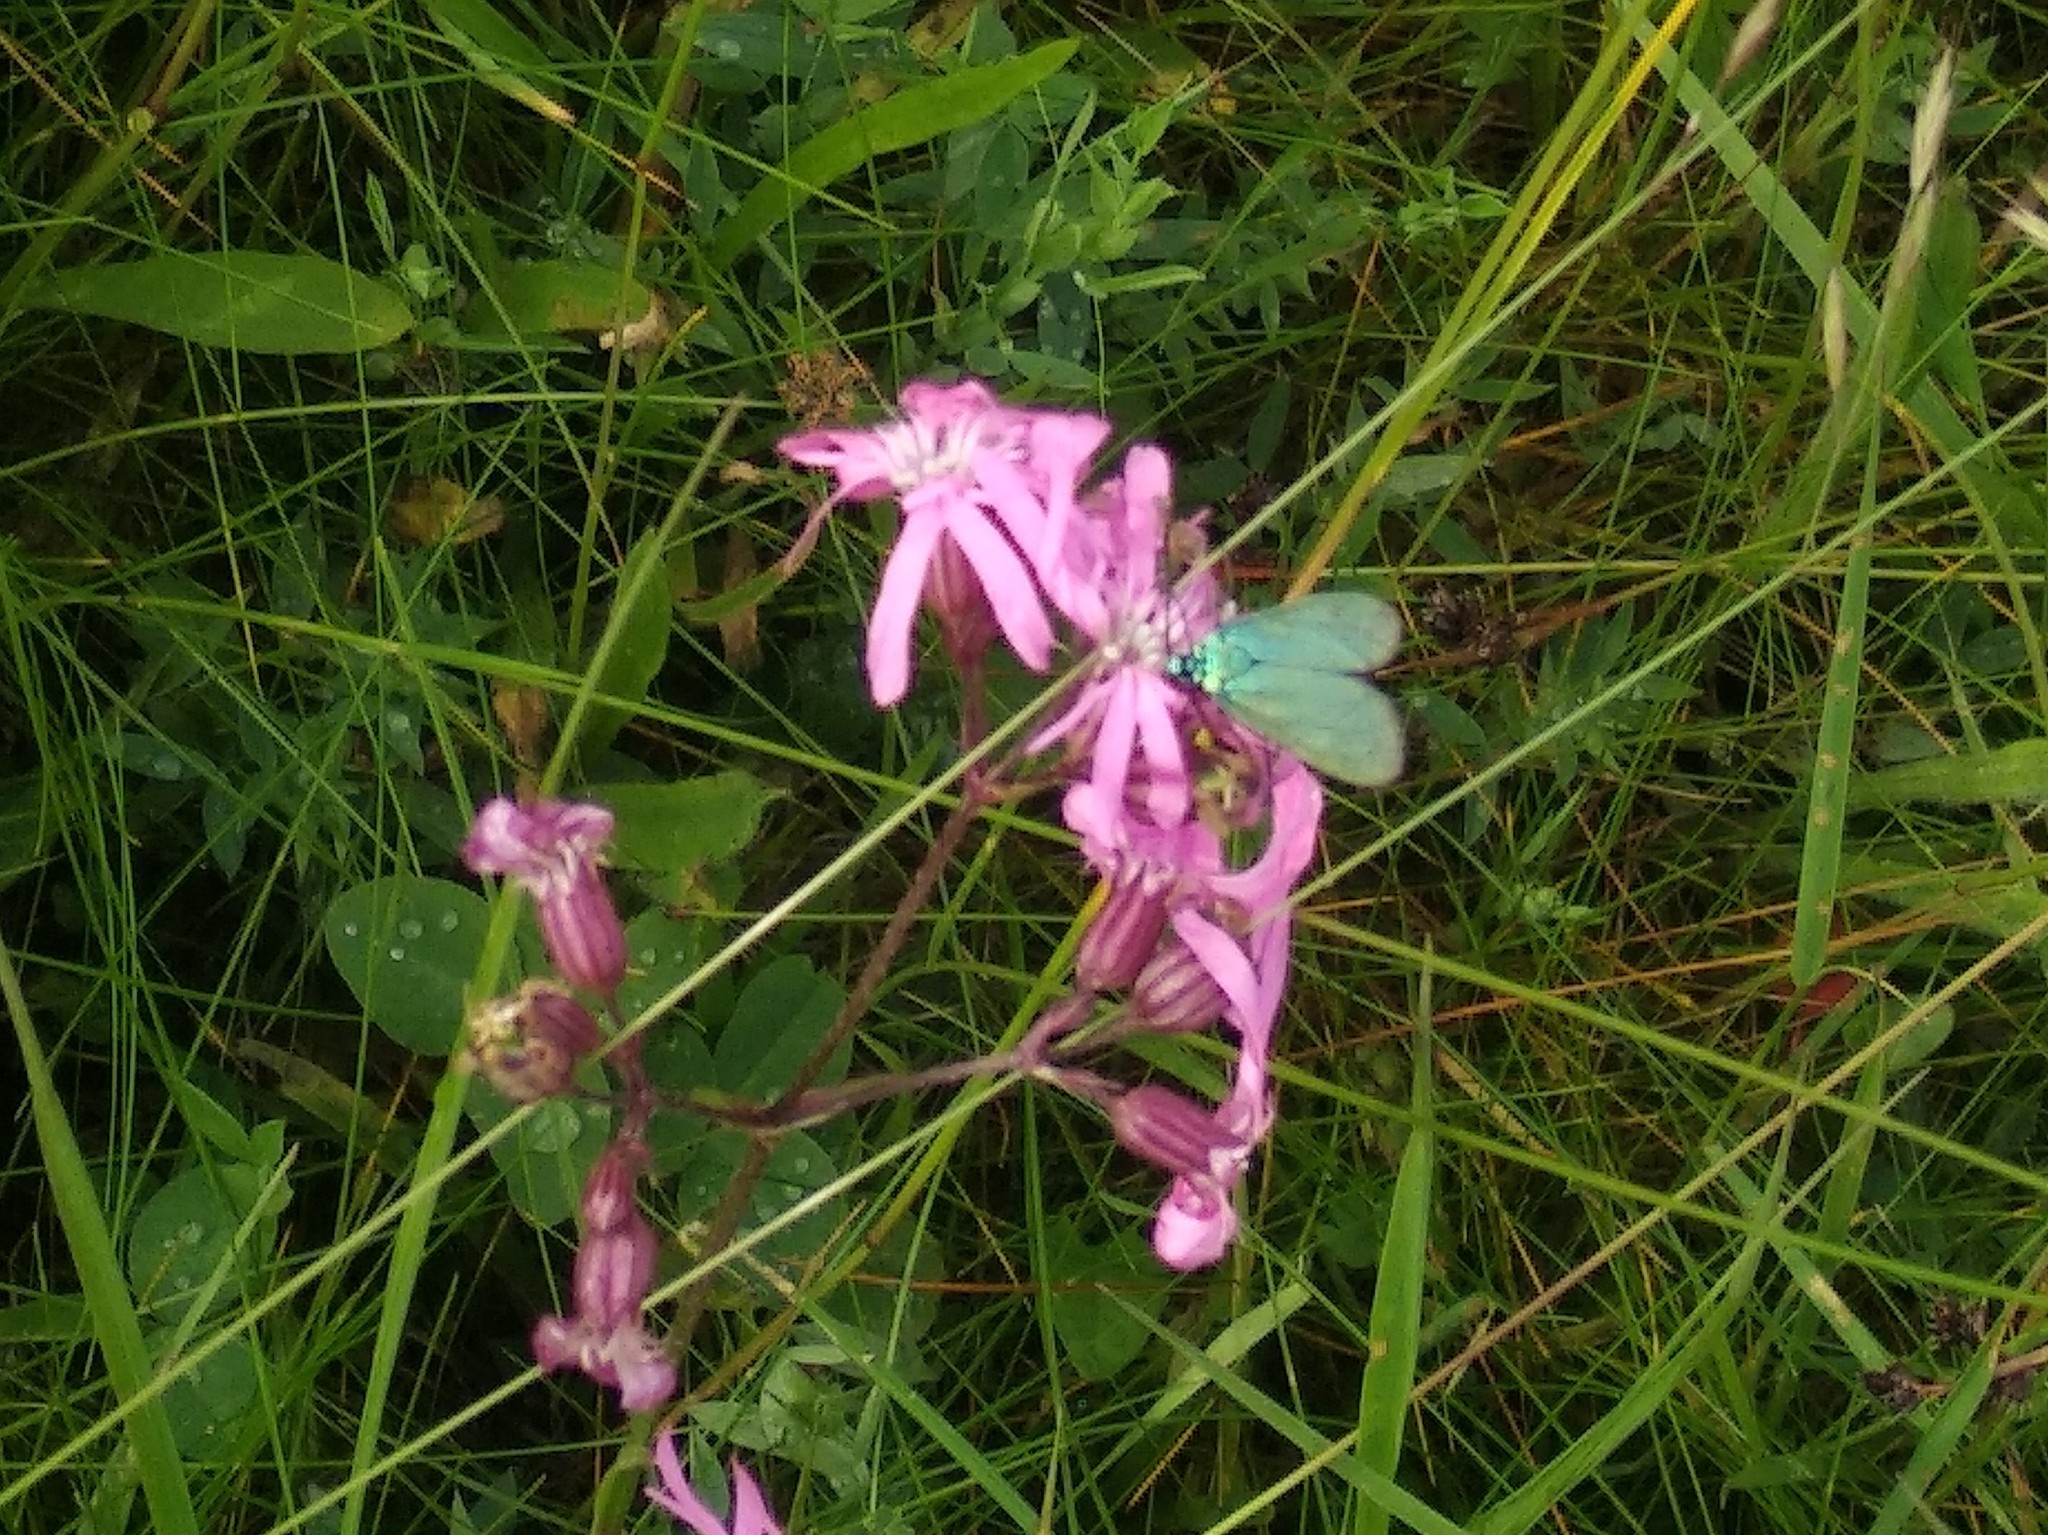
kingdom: Plantae
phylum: Tracheophyta
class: Magnoliopsida
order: Caryophyllales
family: Caryophyllaceae
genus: Silene
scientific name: Silene flos-cuculi
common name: Ragged-robin
